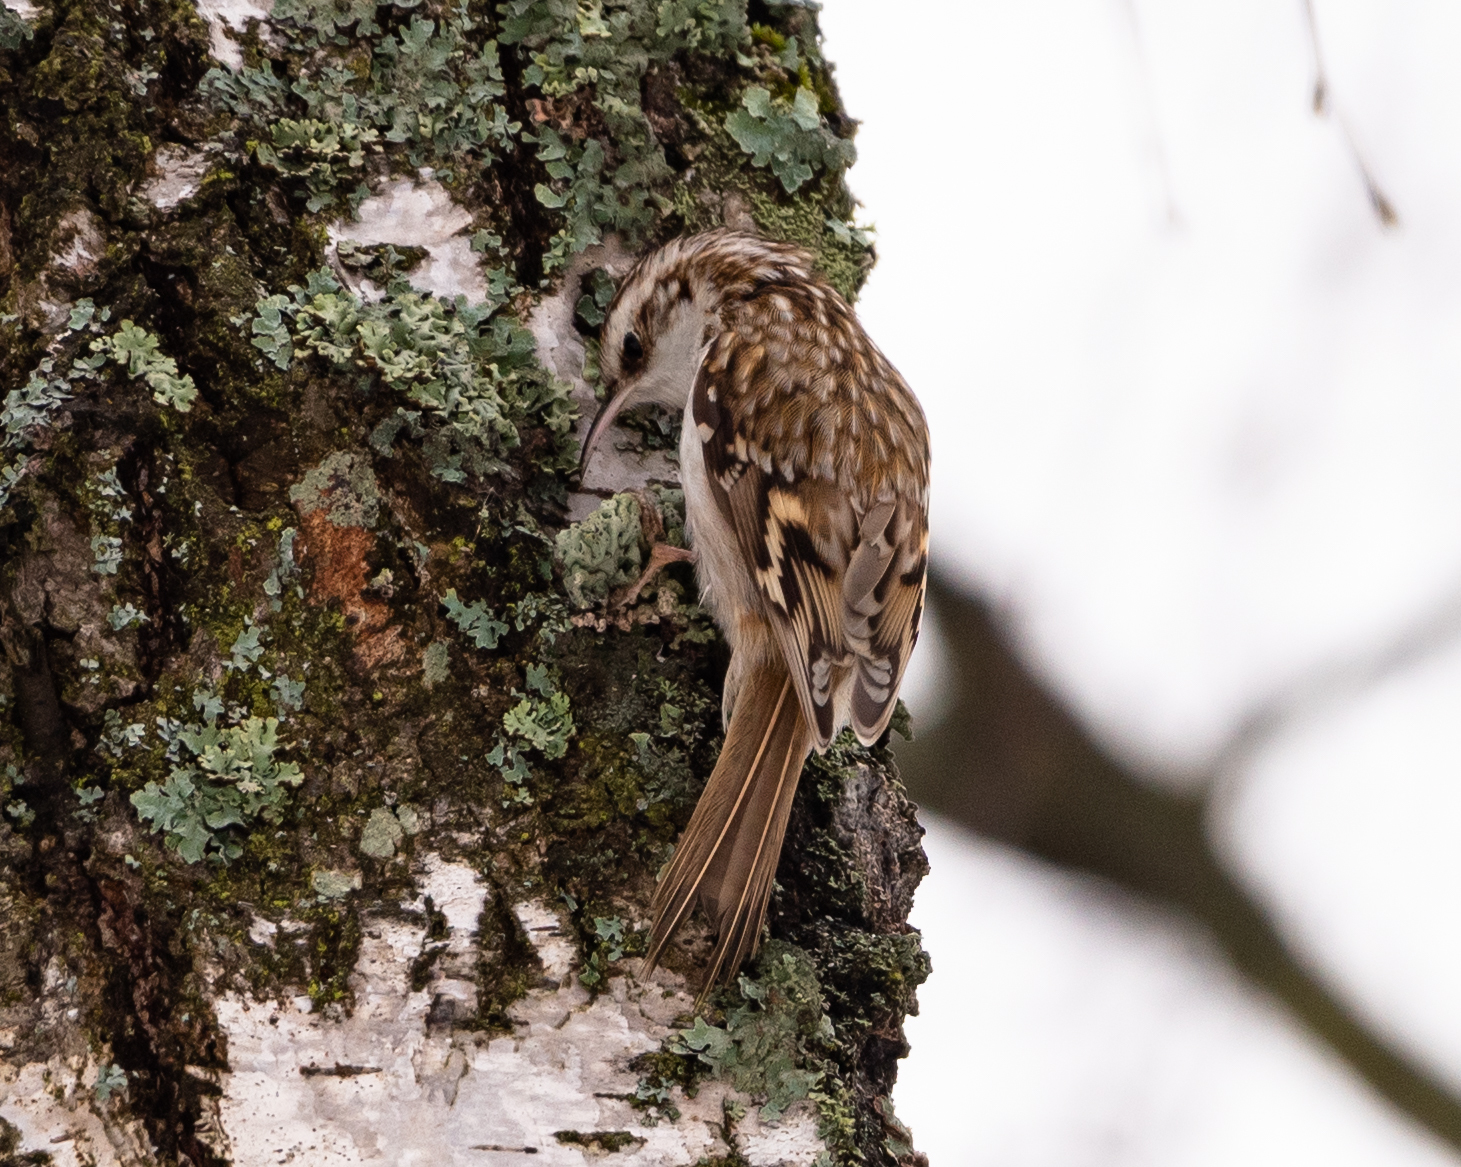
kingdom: Animalia
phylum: Chordata
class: Aves
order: Passeriformes
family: Certhiidae
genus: Certhia
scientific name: Certhia familiaris
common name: Eurasian treecreeper
